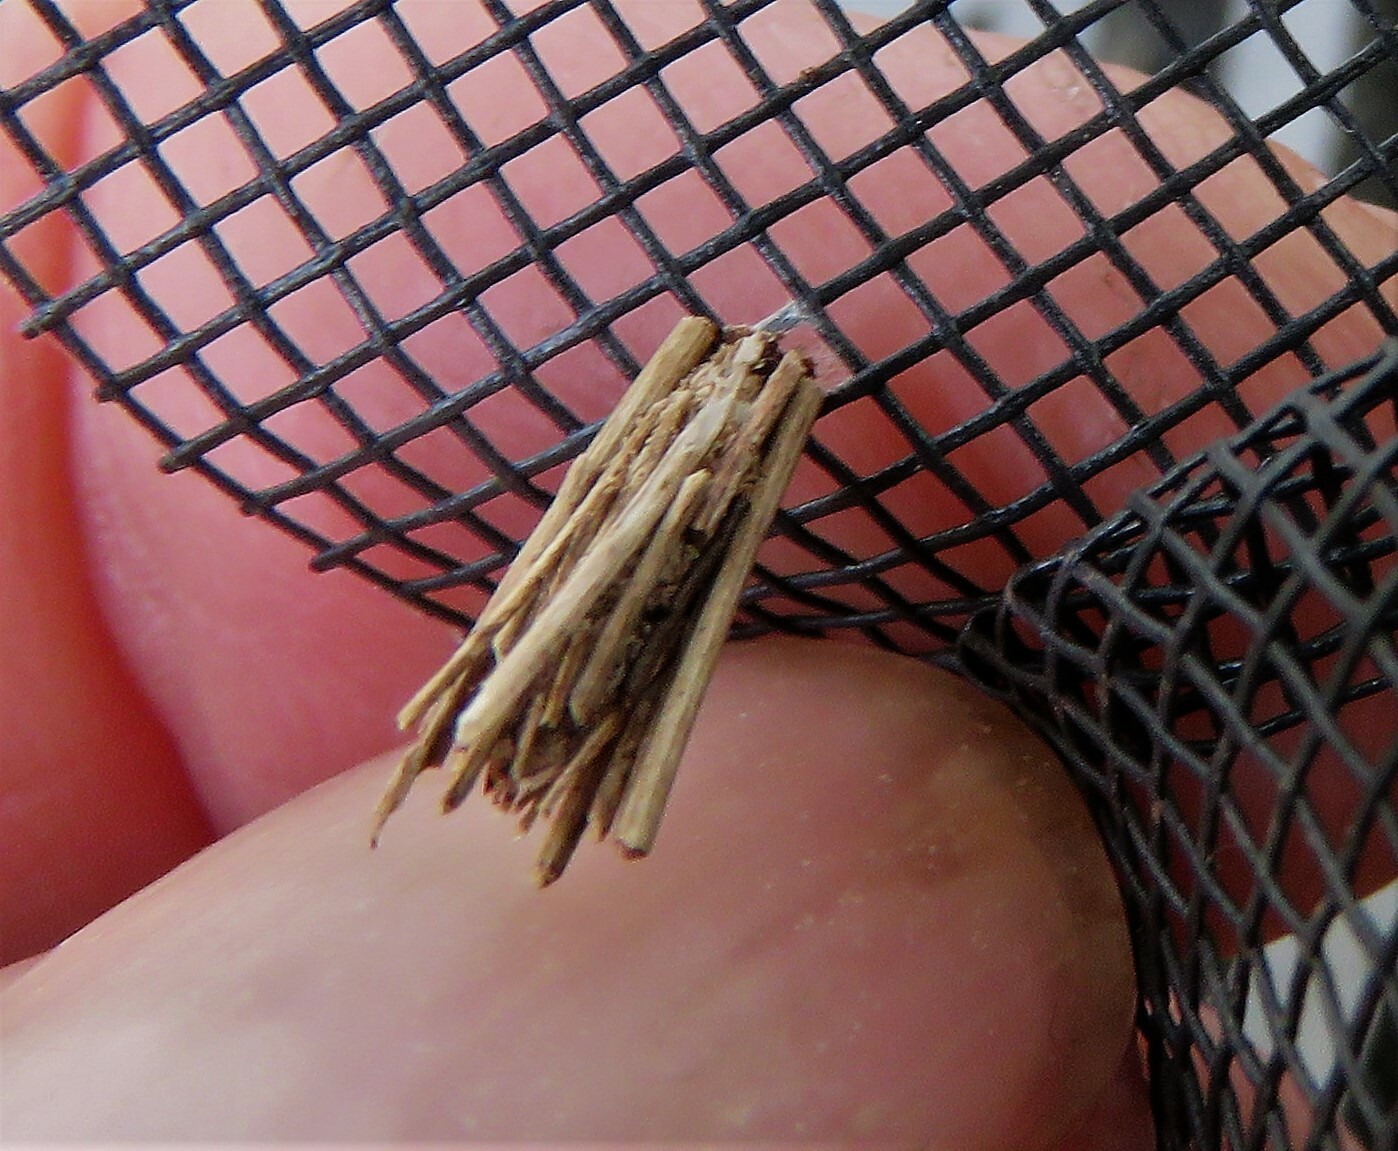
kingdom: Animalia
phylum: Arthropoda
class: Insecta
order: Lepidoptera
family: Psychidae
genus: Psyche
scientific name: Psyche casta
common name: Common sweep
